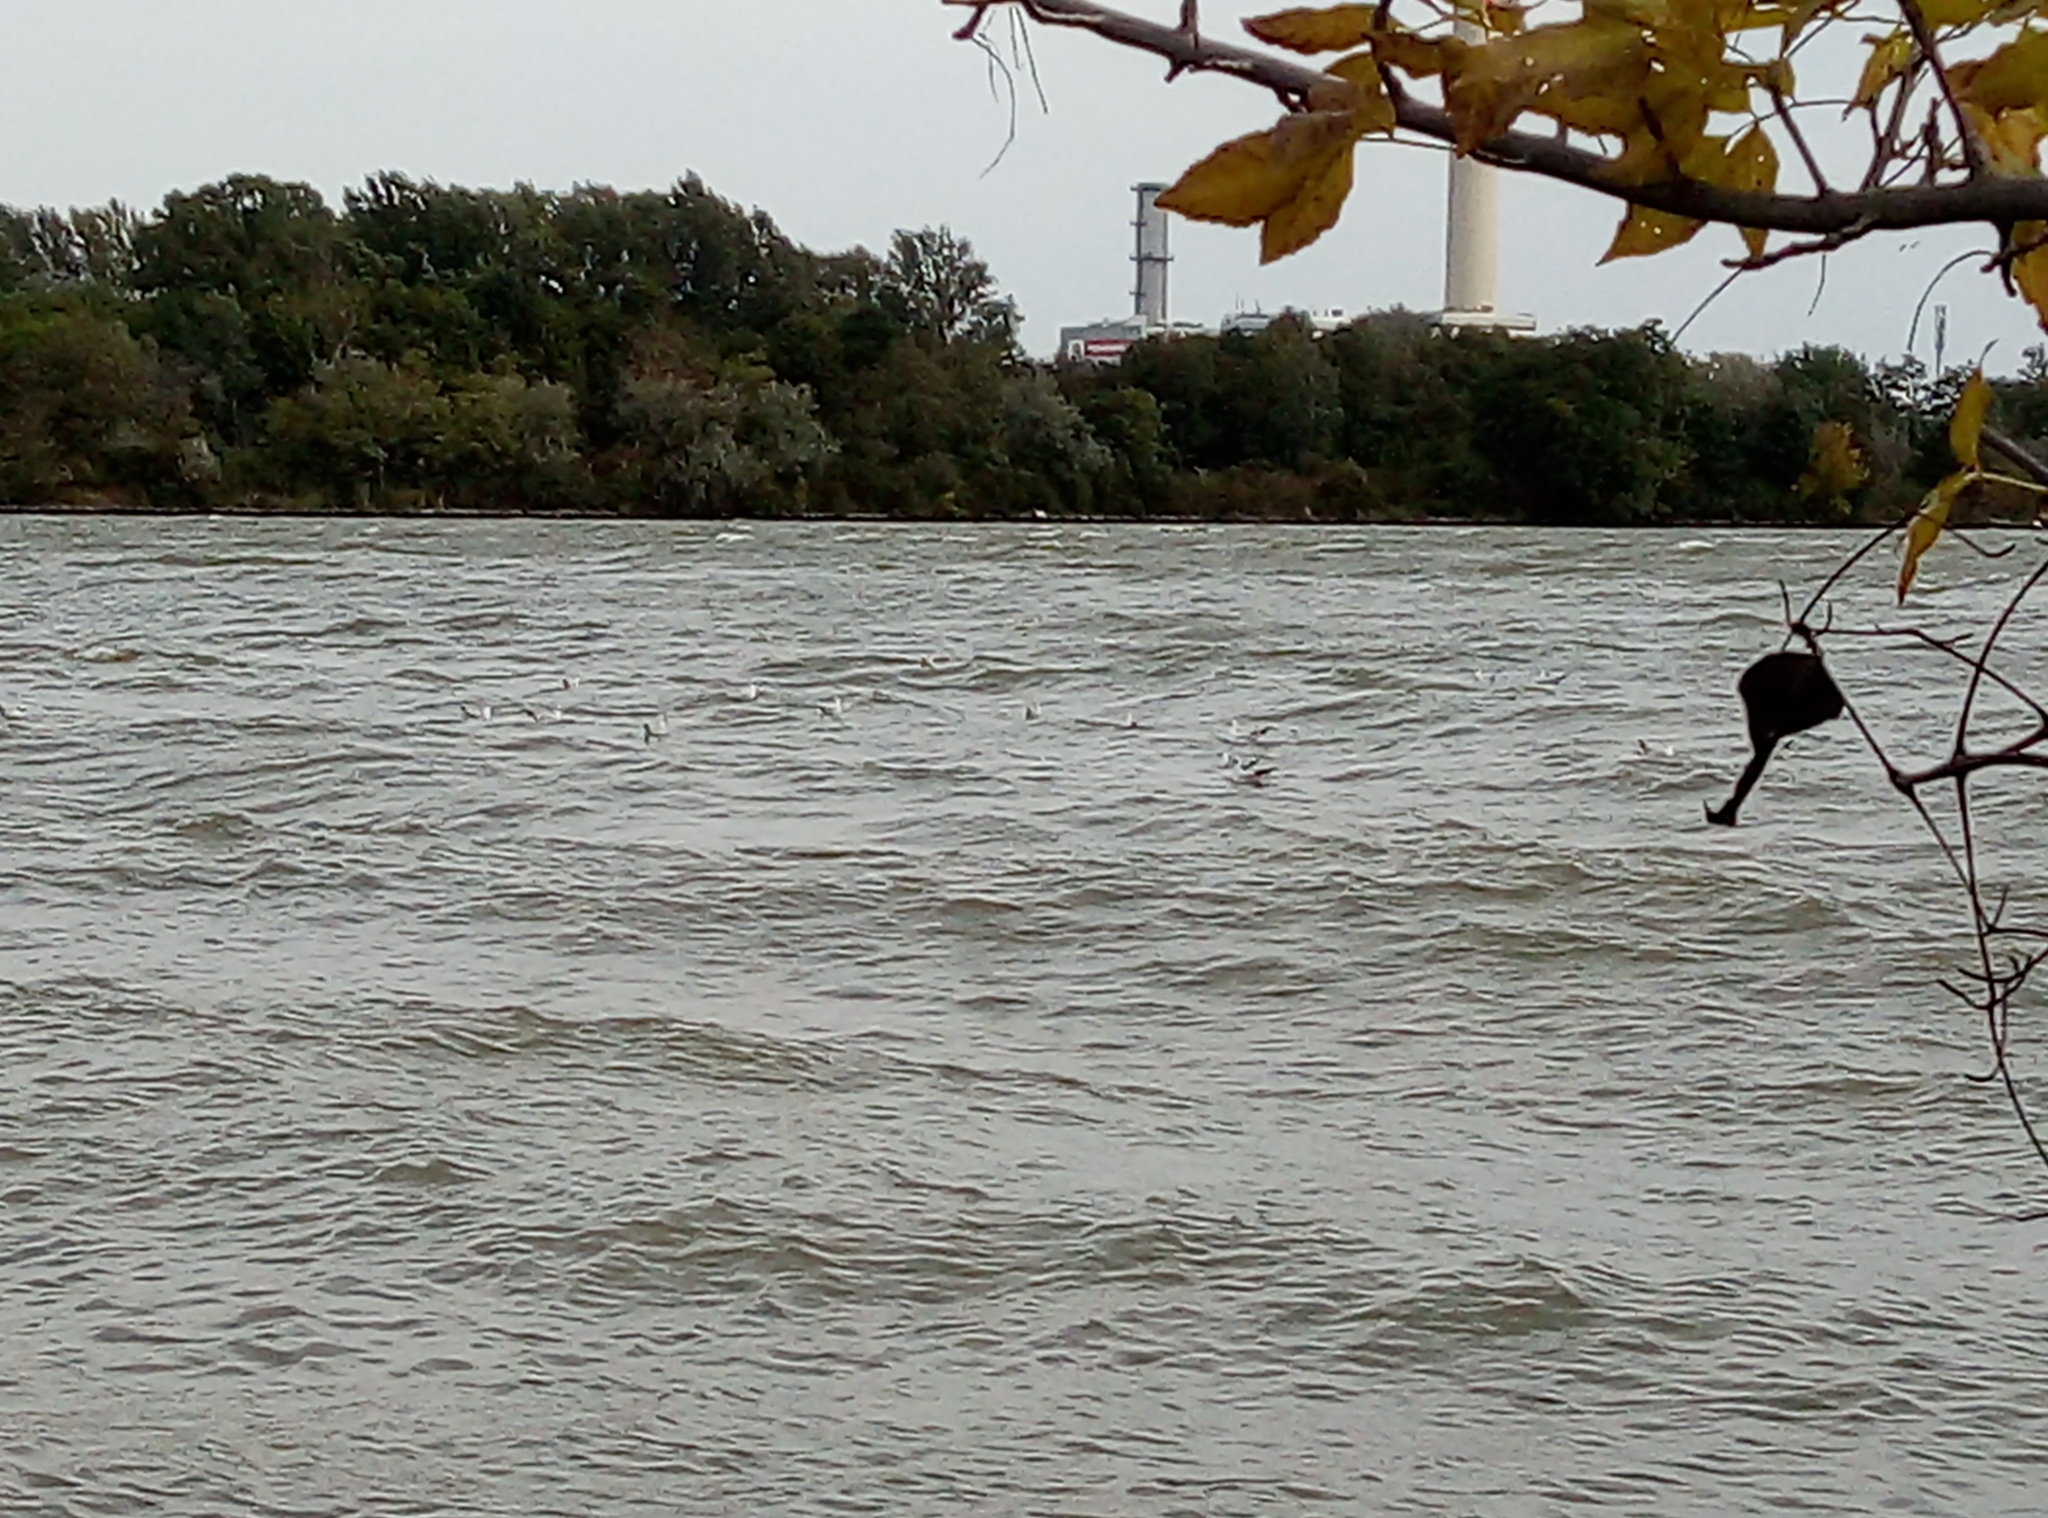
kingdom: Animalia
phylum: Chordata
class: Aves
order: Charadriiformes
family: Laridae
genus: Chroicocephalus
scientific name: Chroicocephalus ridibundus
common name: Black-headed gull
